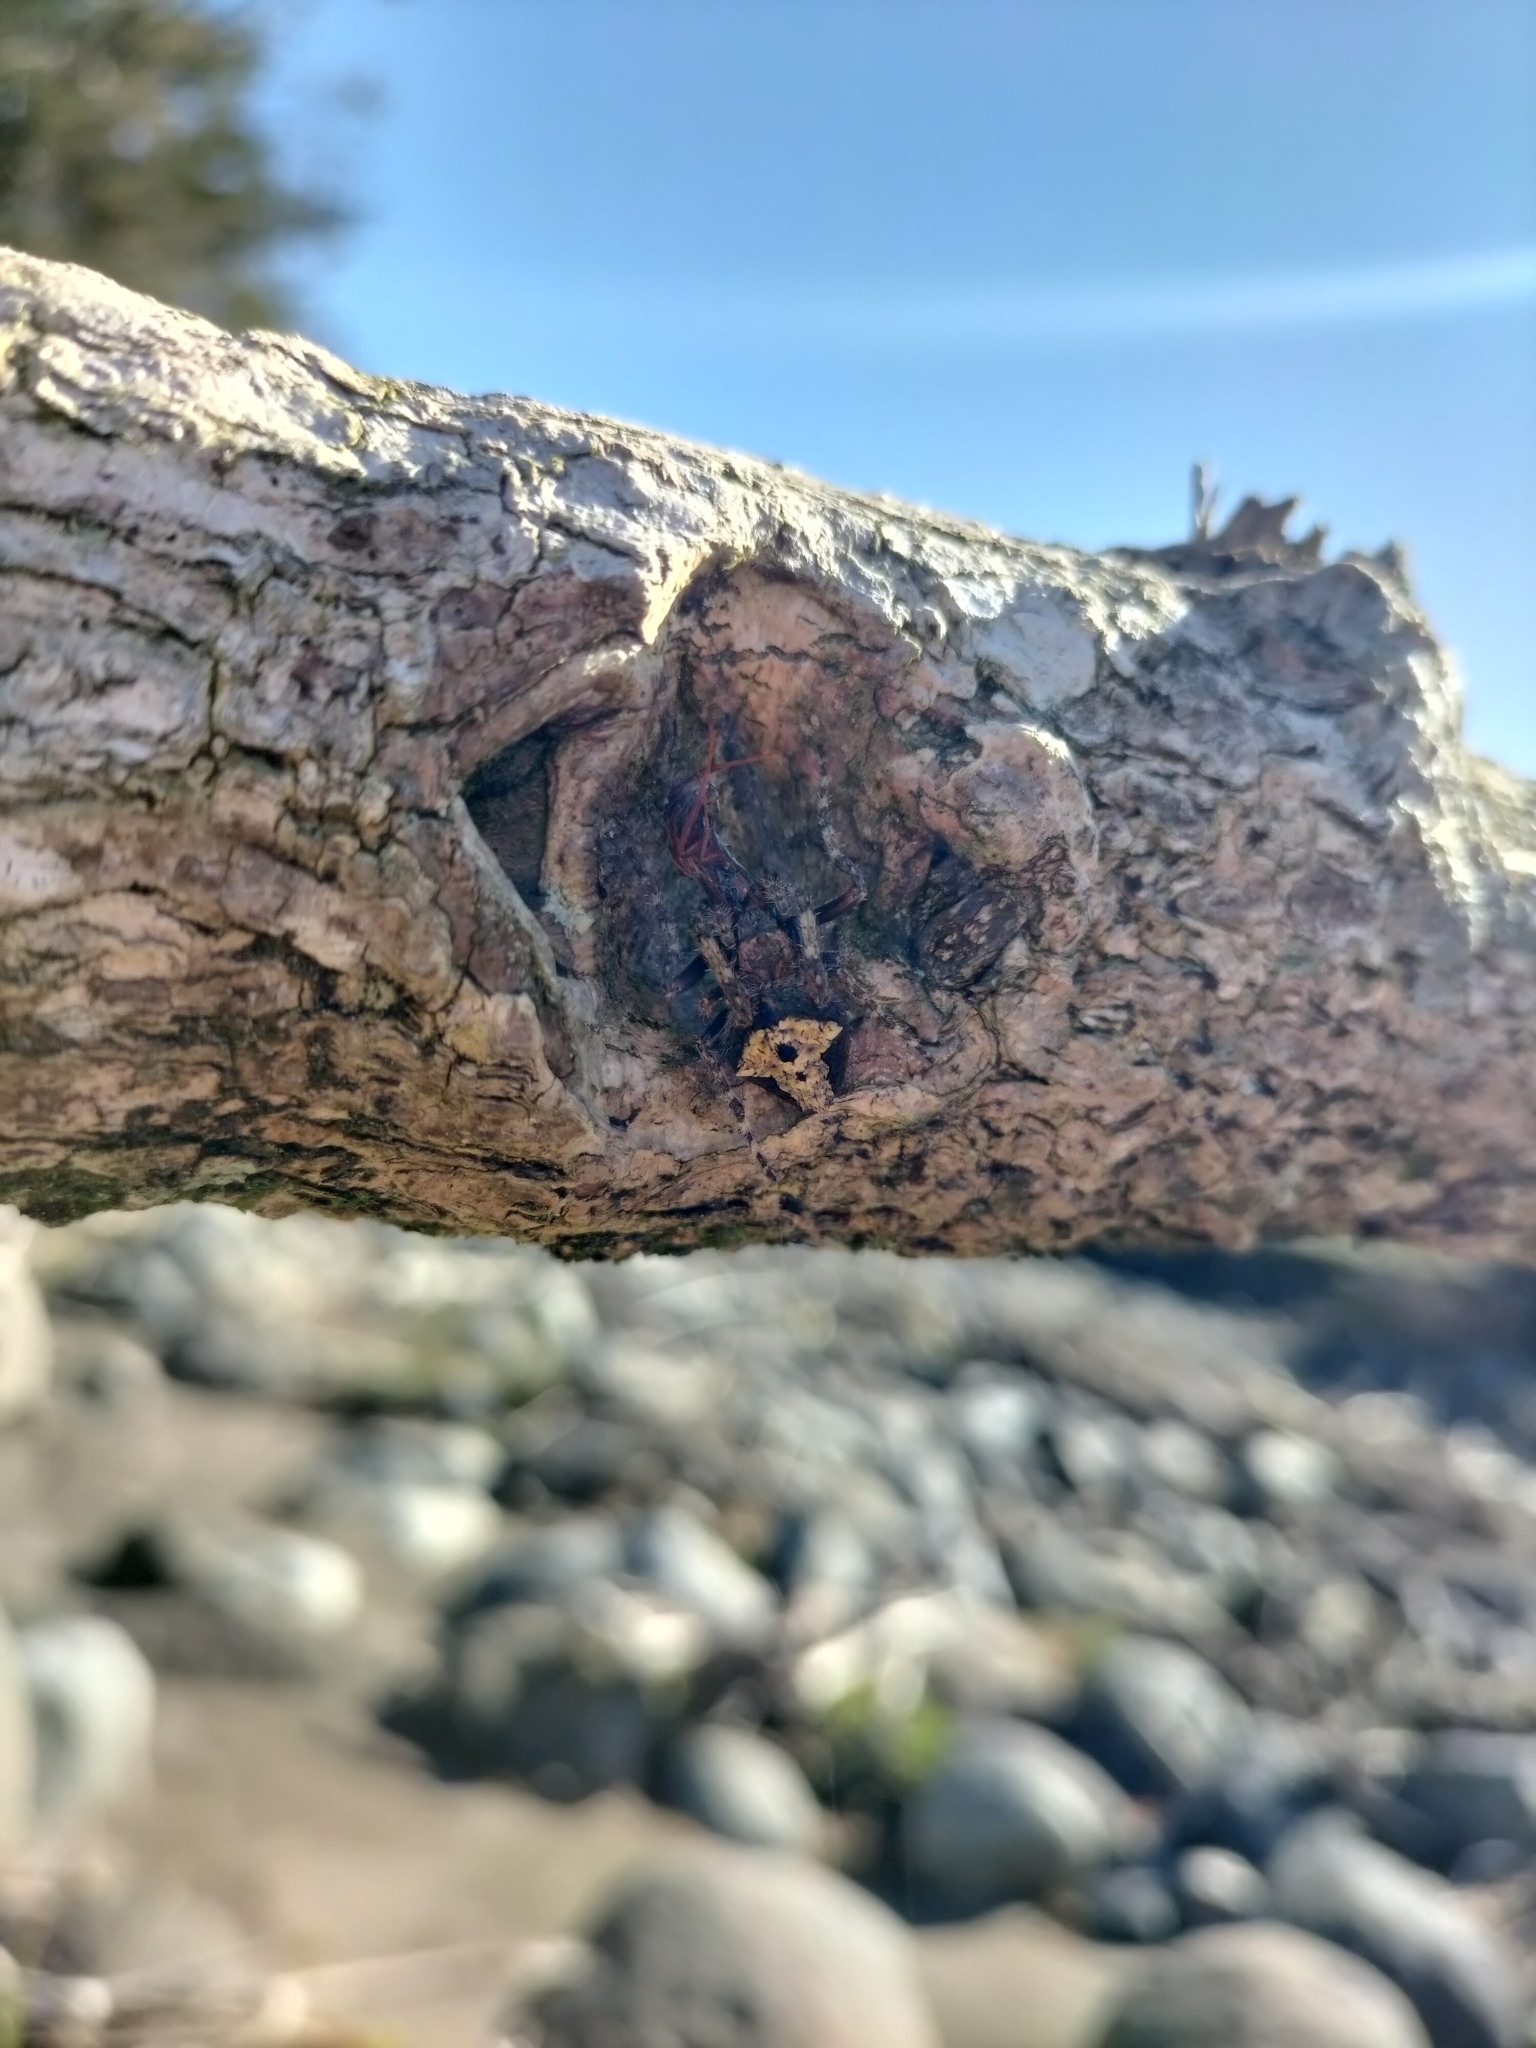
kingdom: Animalia
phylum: Arthropoda
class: Arachnida
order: Araneae
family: Araneidae
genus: Eriophora
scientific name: Eriophora pustulosa
